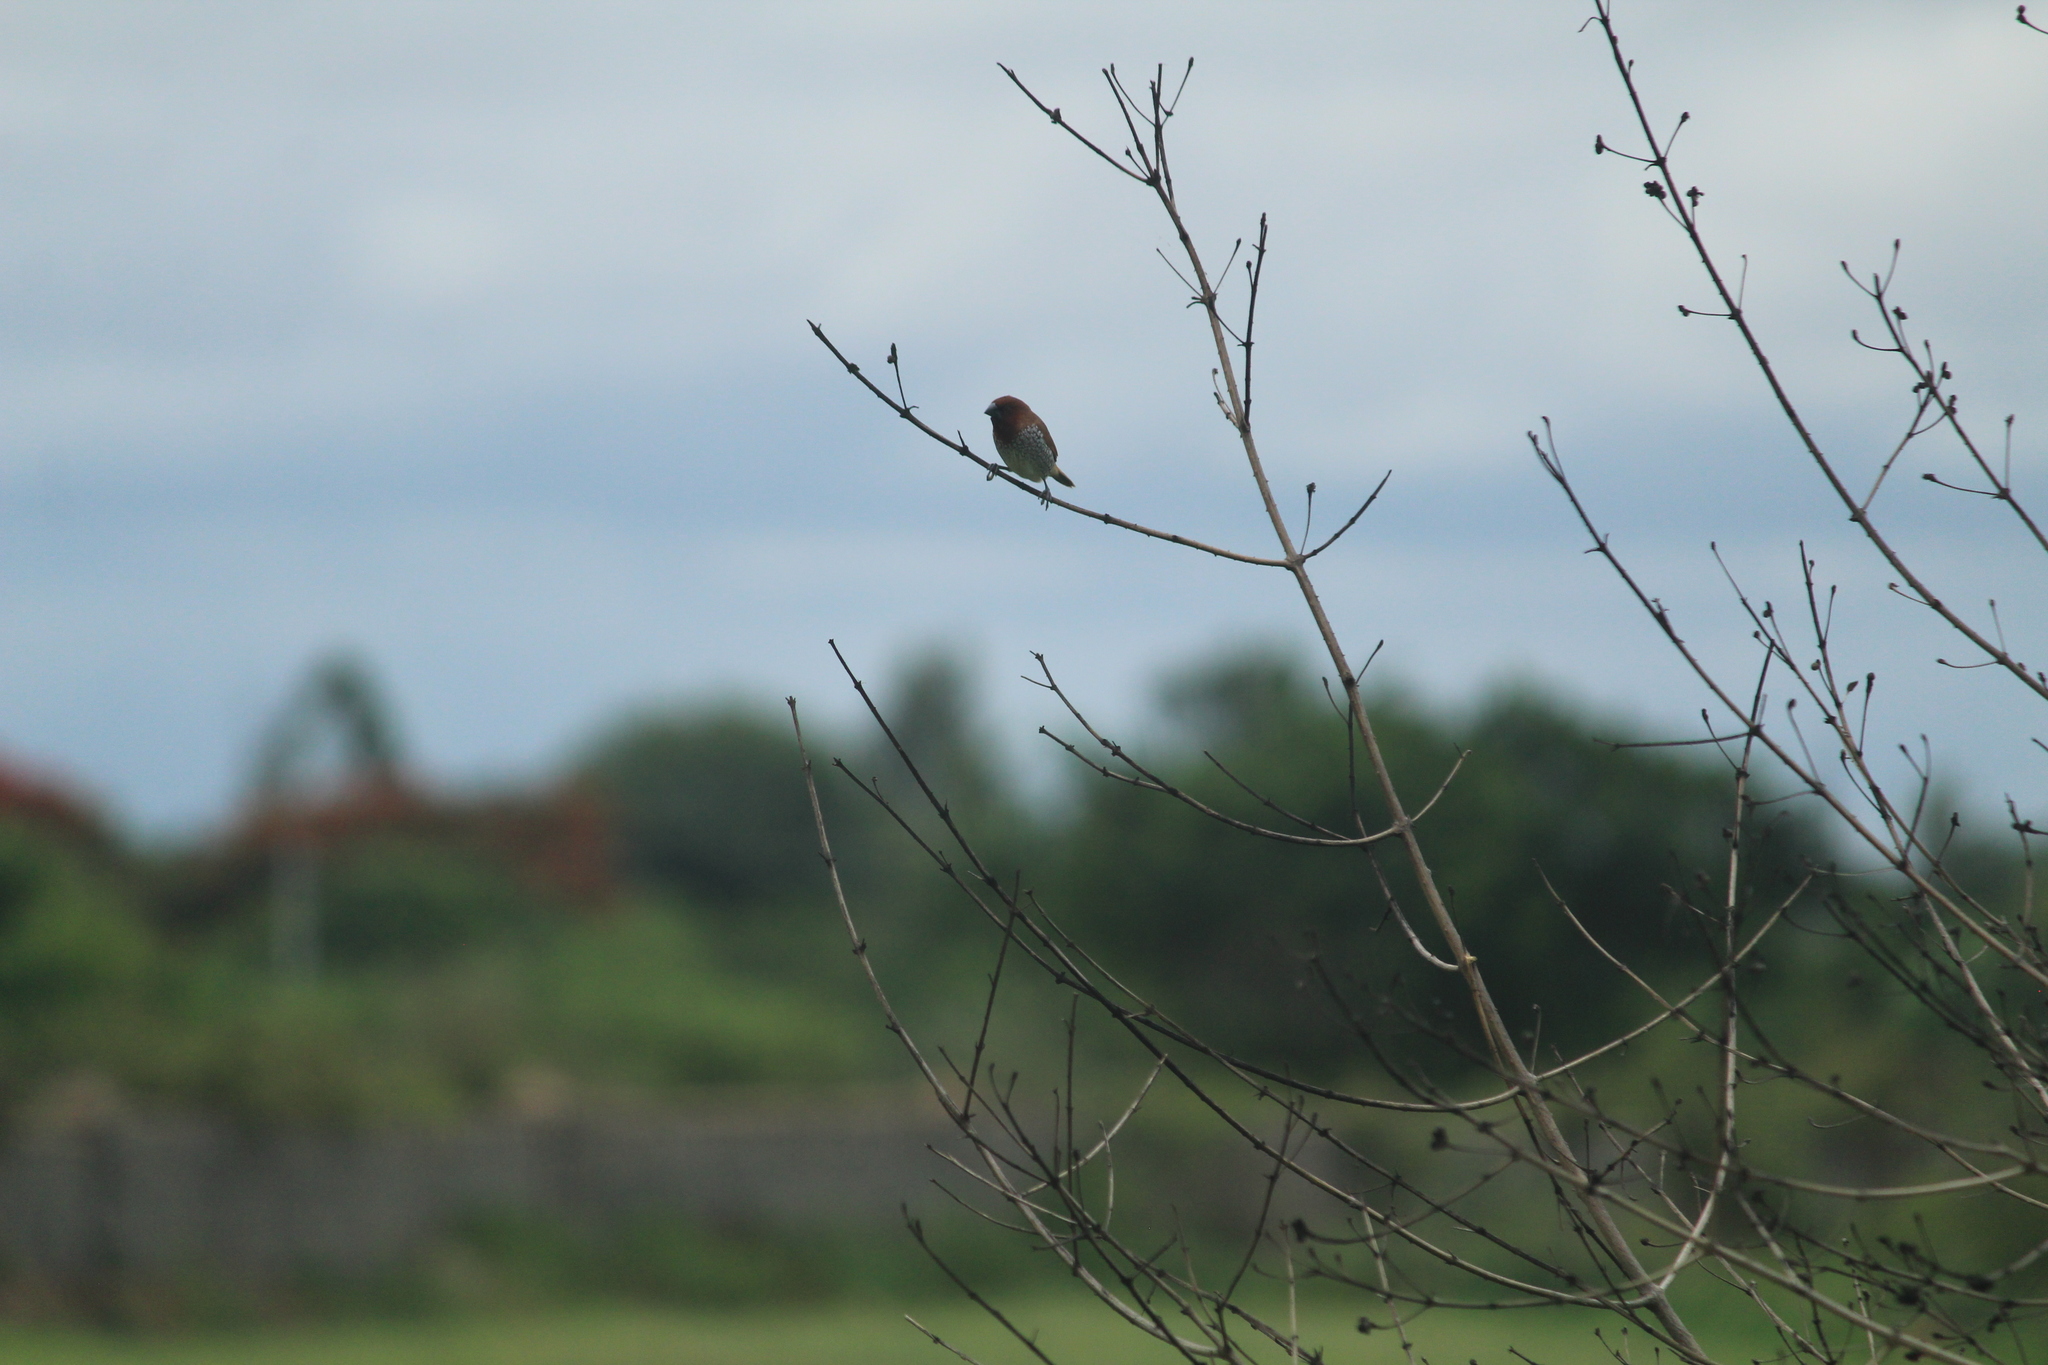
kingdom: Animalia
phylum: Chordata
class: Aves
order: Passeriformes
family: Estrildidae
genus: Lonchura
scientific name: Lonchura punctulata
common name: Scaly-breasted munia
